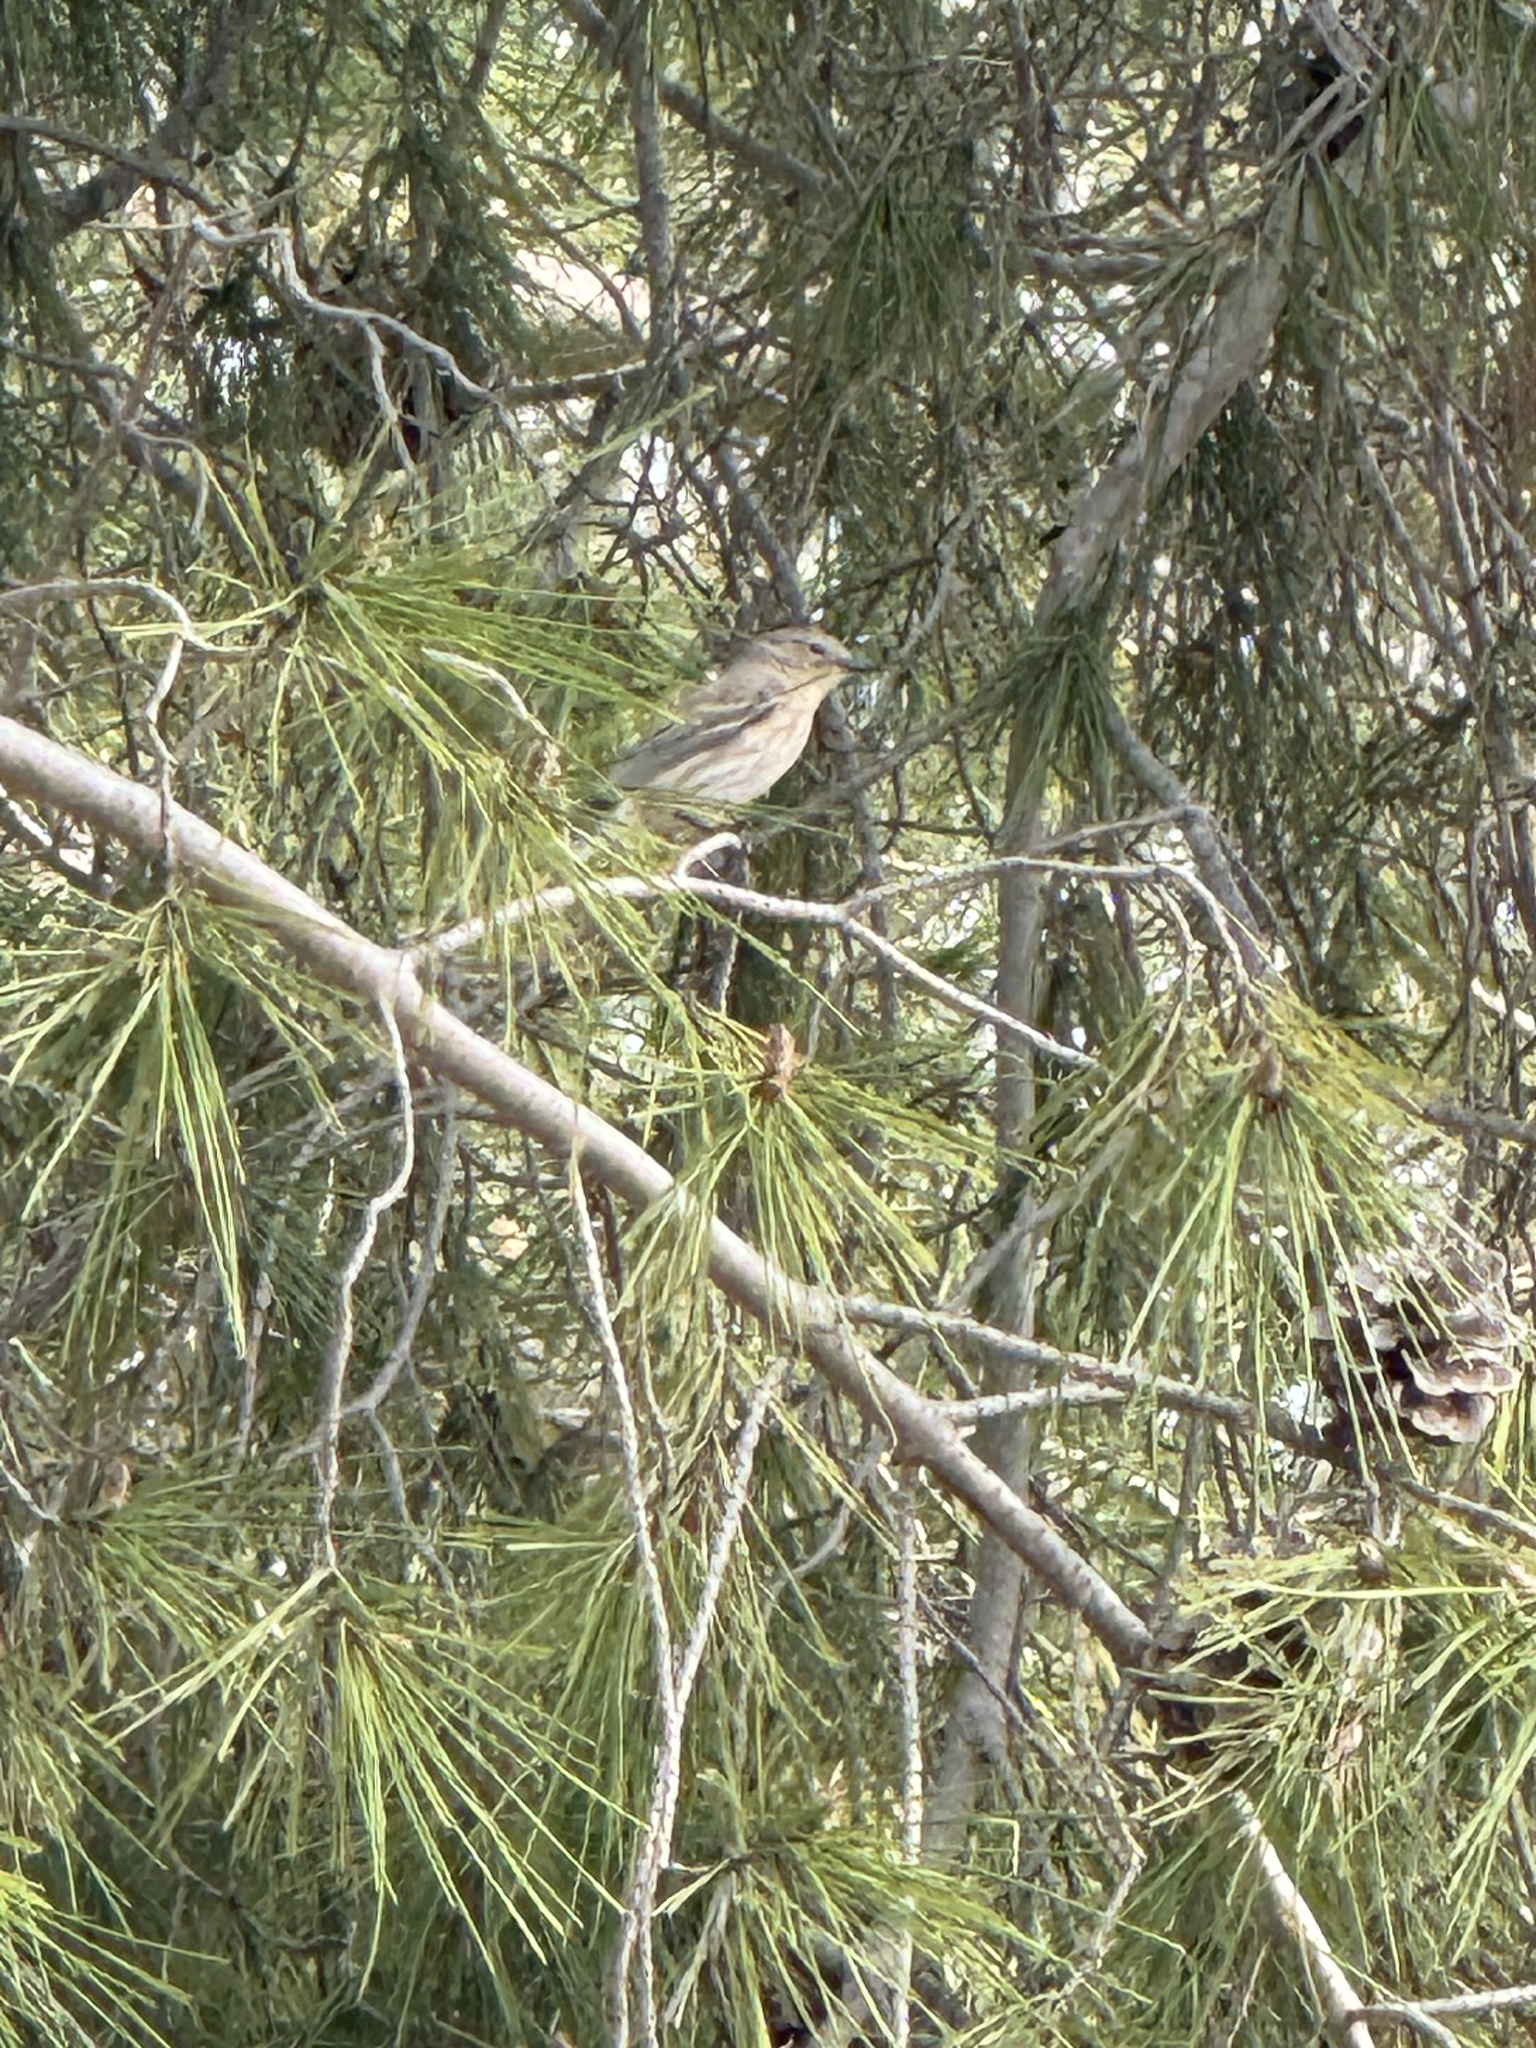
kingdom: Animalia
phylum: Chordata
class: Aves
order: Passeriformes
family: Parulidae
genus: Setophaga
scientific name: Setophaga auduboni
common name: Audubon's warbler
